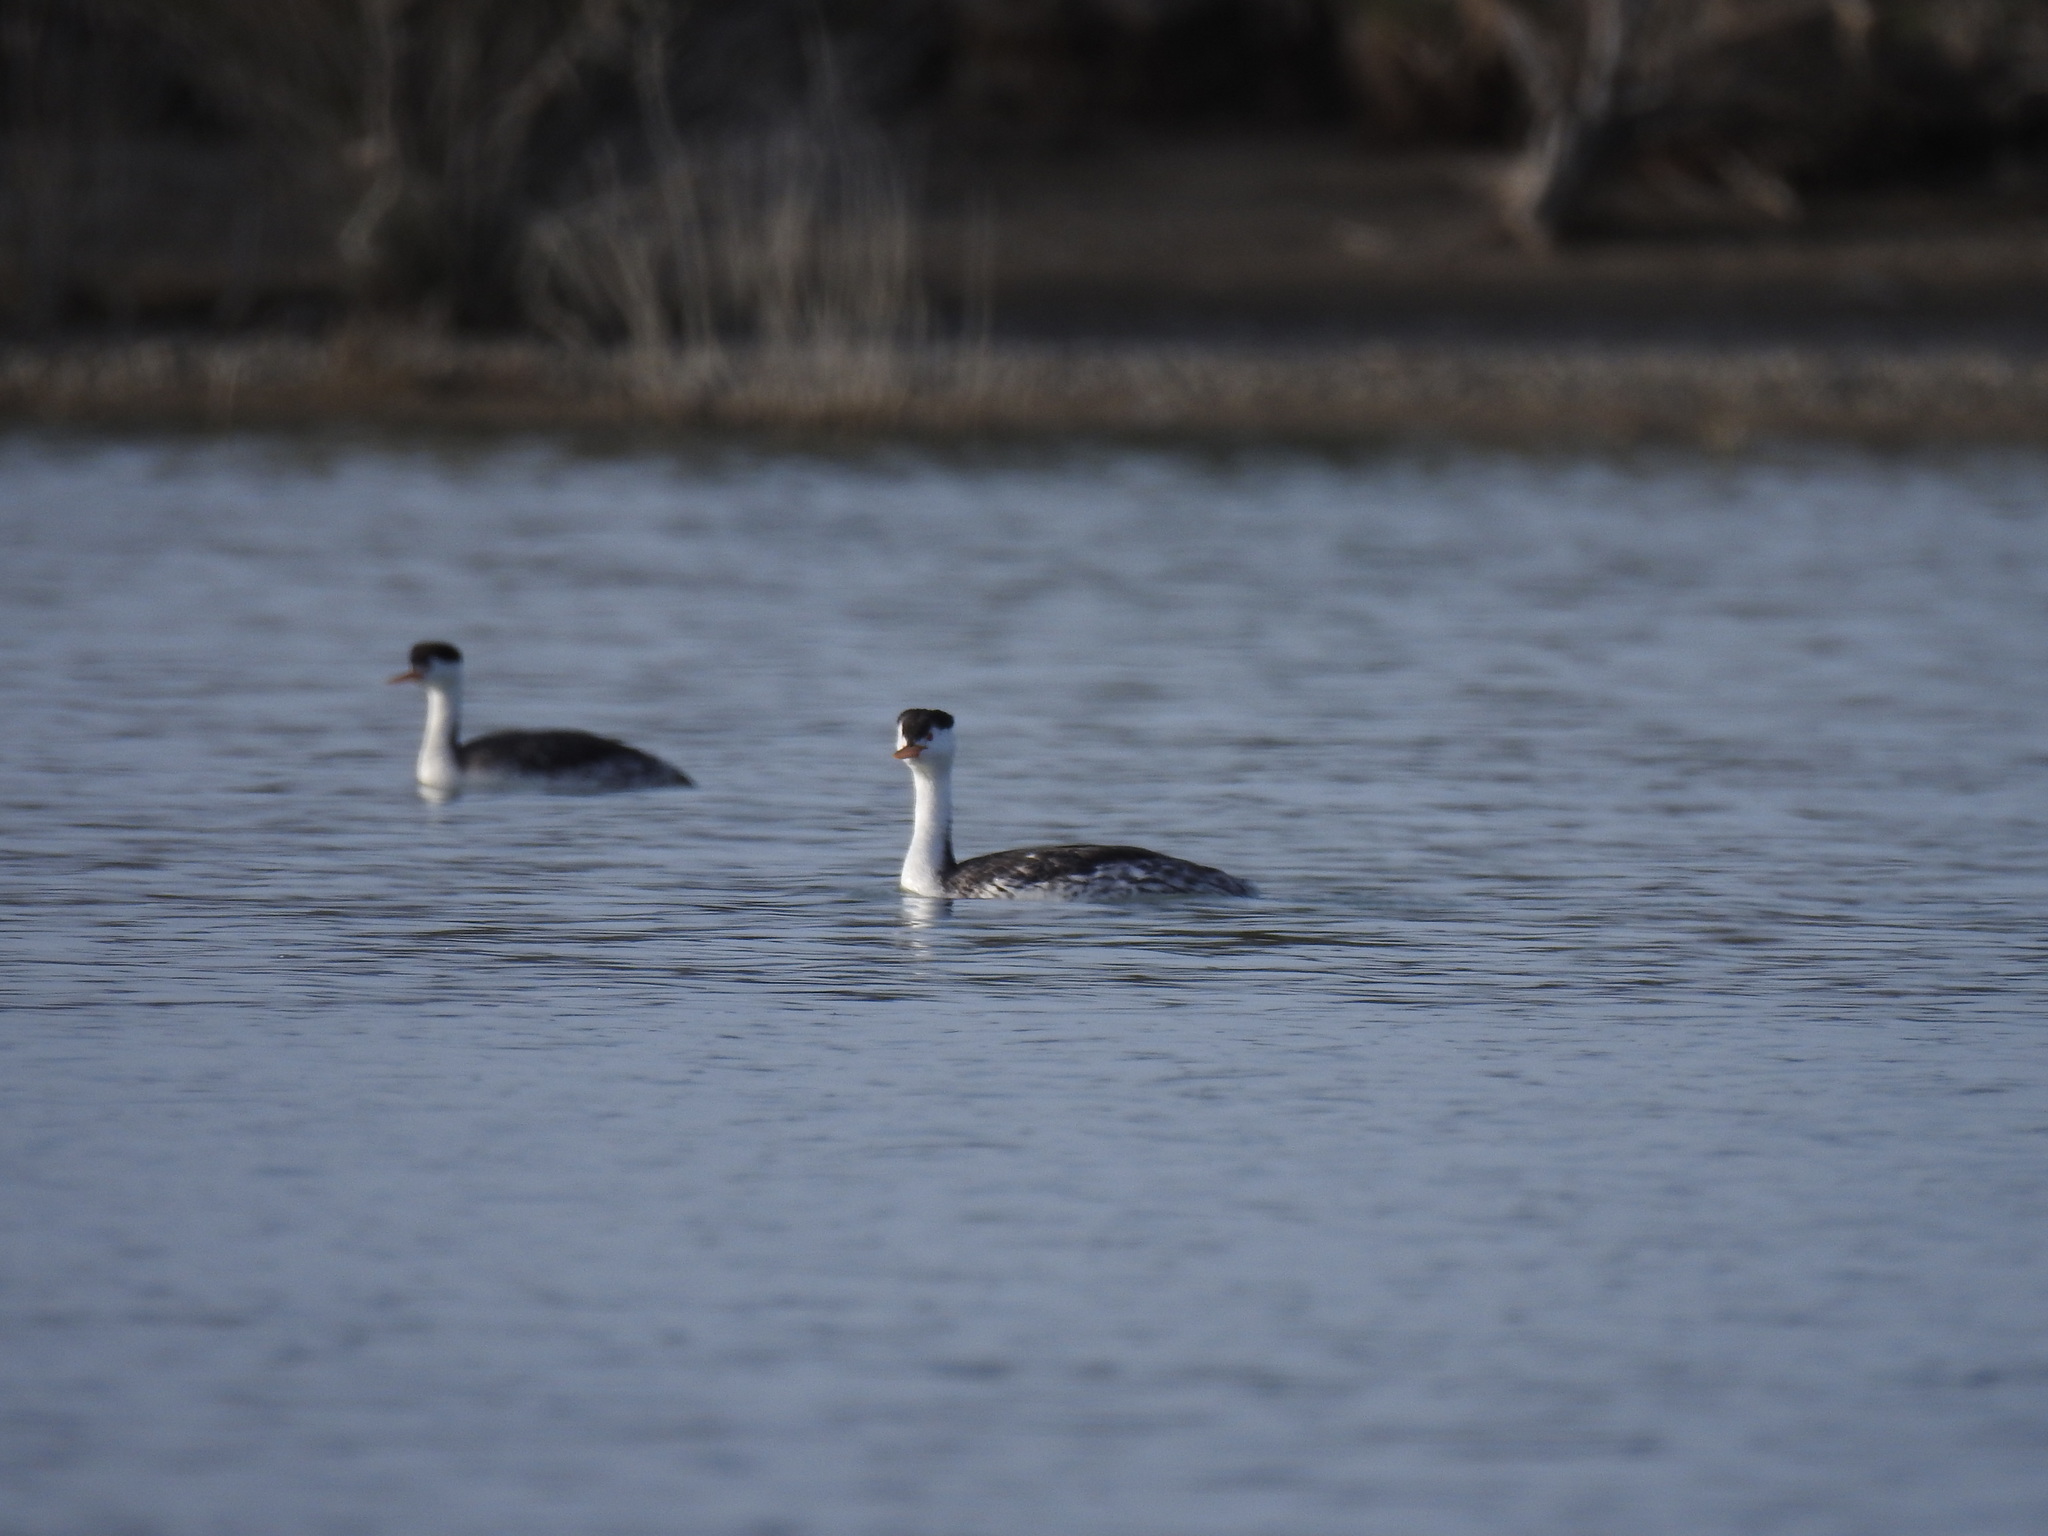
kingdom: Animalia
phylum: Chordata
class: Aves
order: Podicipediformes
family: Podicipedidae
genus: Aechmophorus
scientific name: Aechmophorus clarkii
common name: Clark's grebe
